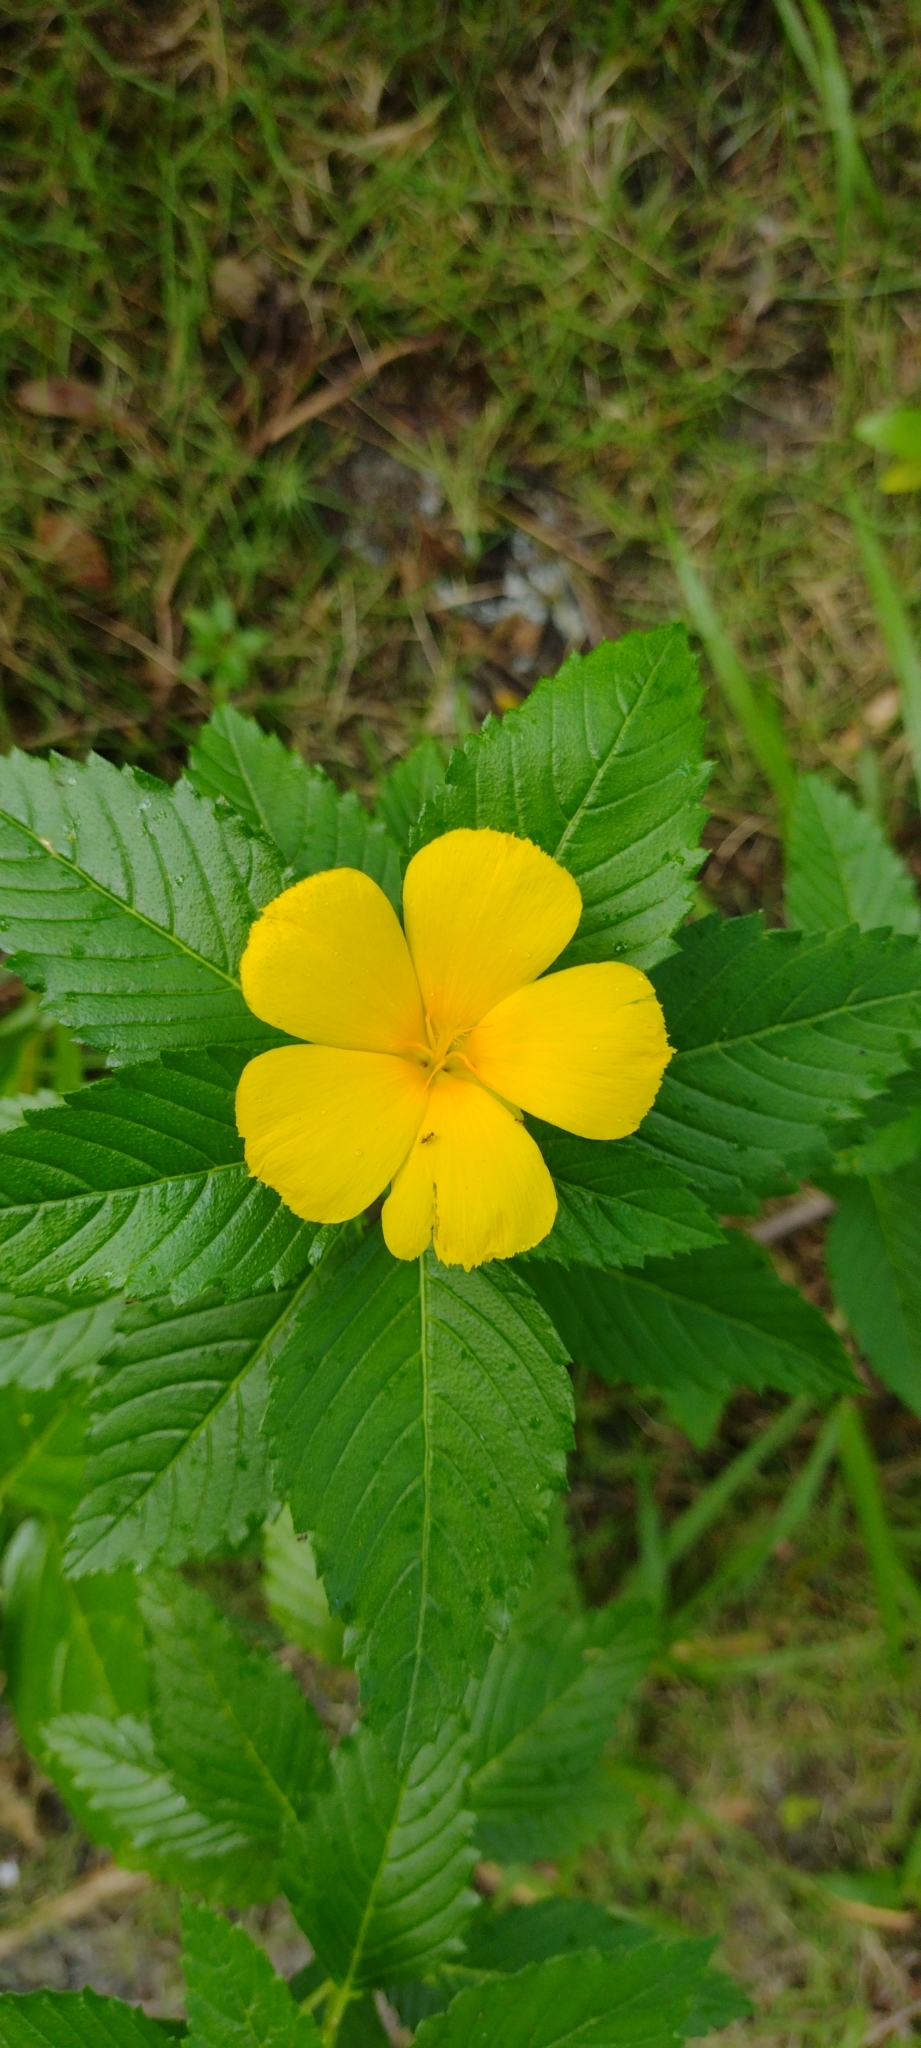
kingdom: Plantae
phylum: Tracheophyta
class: Magnoliopsida
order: Malpighiales
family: Turneraceae
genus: Turnera
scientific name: Turnera ulmifolia
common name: Ramgoat dashalong
